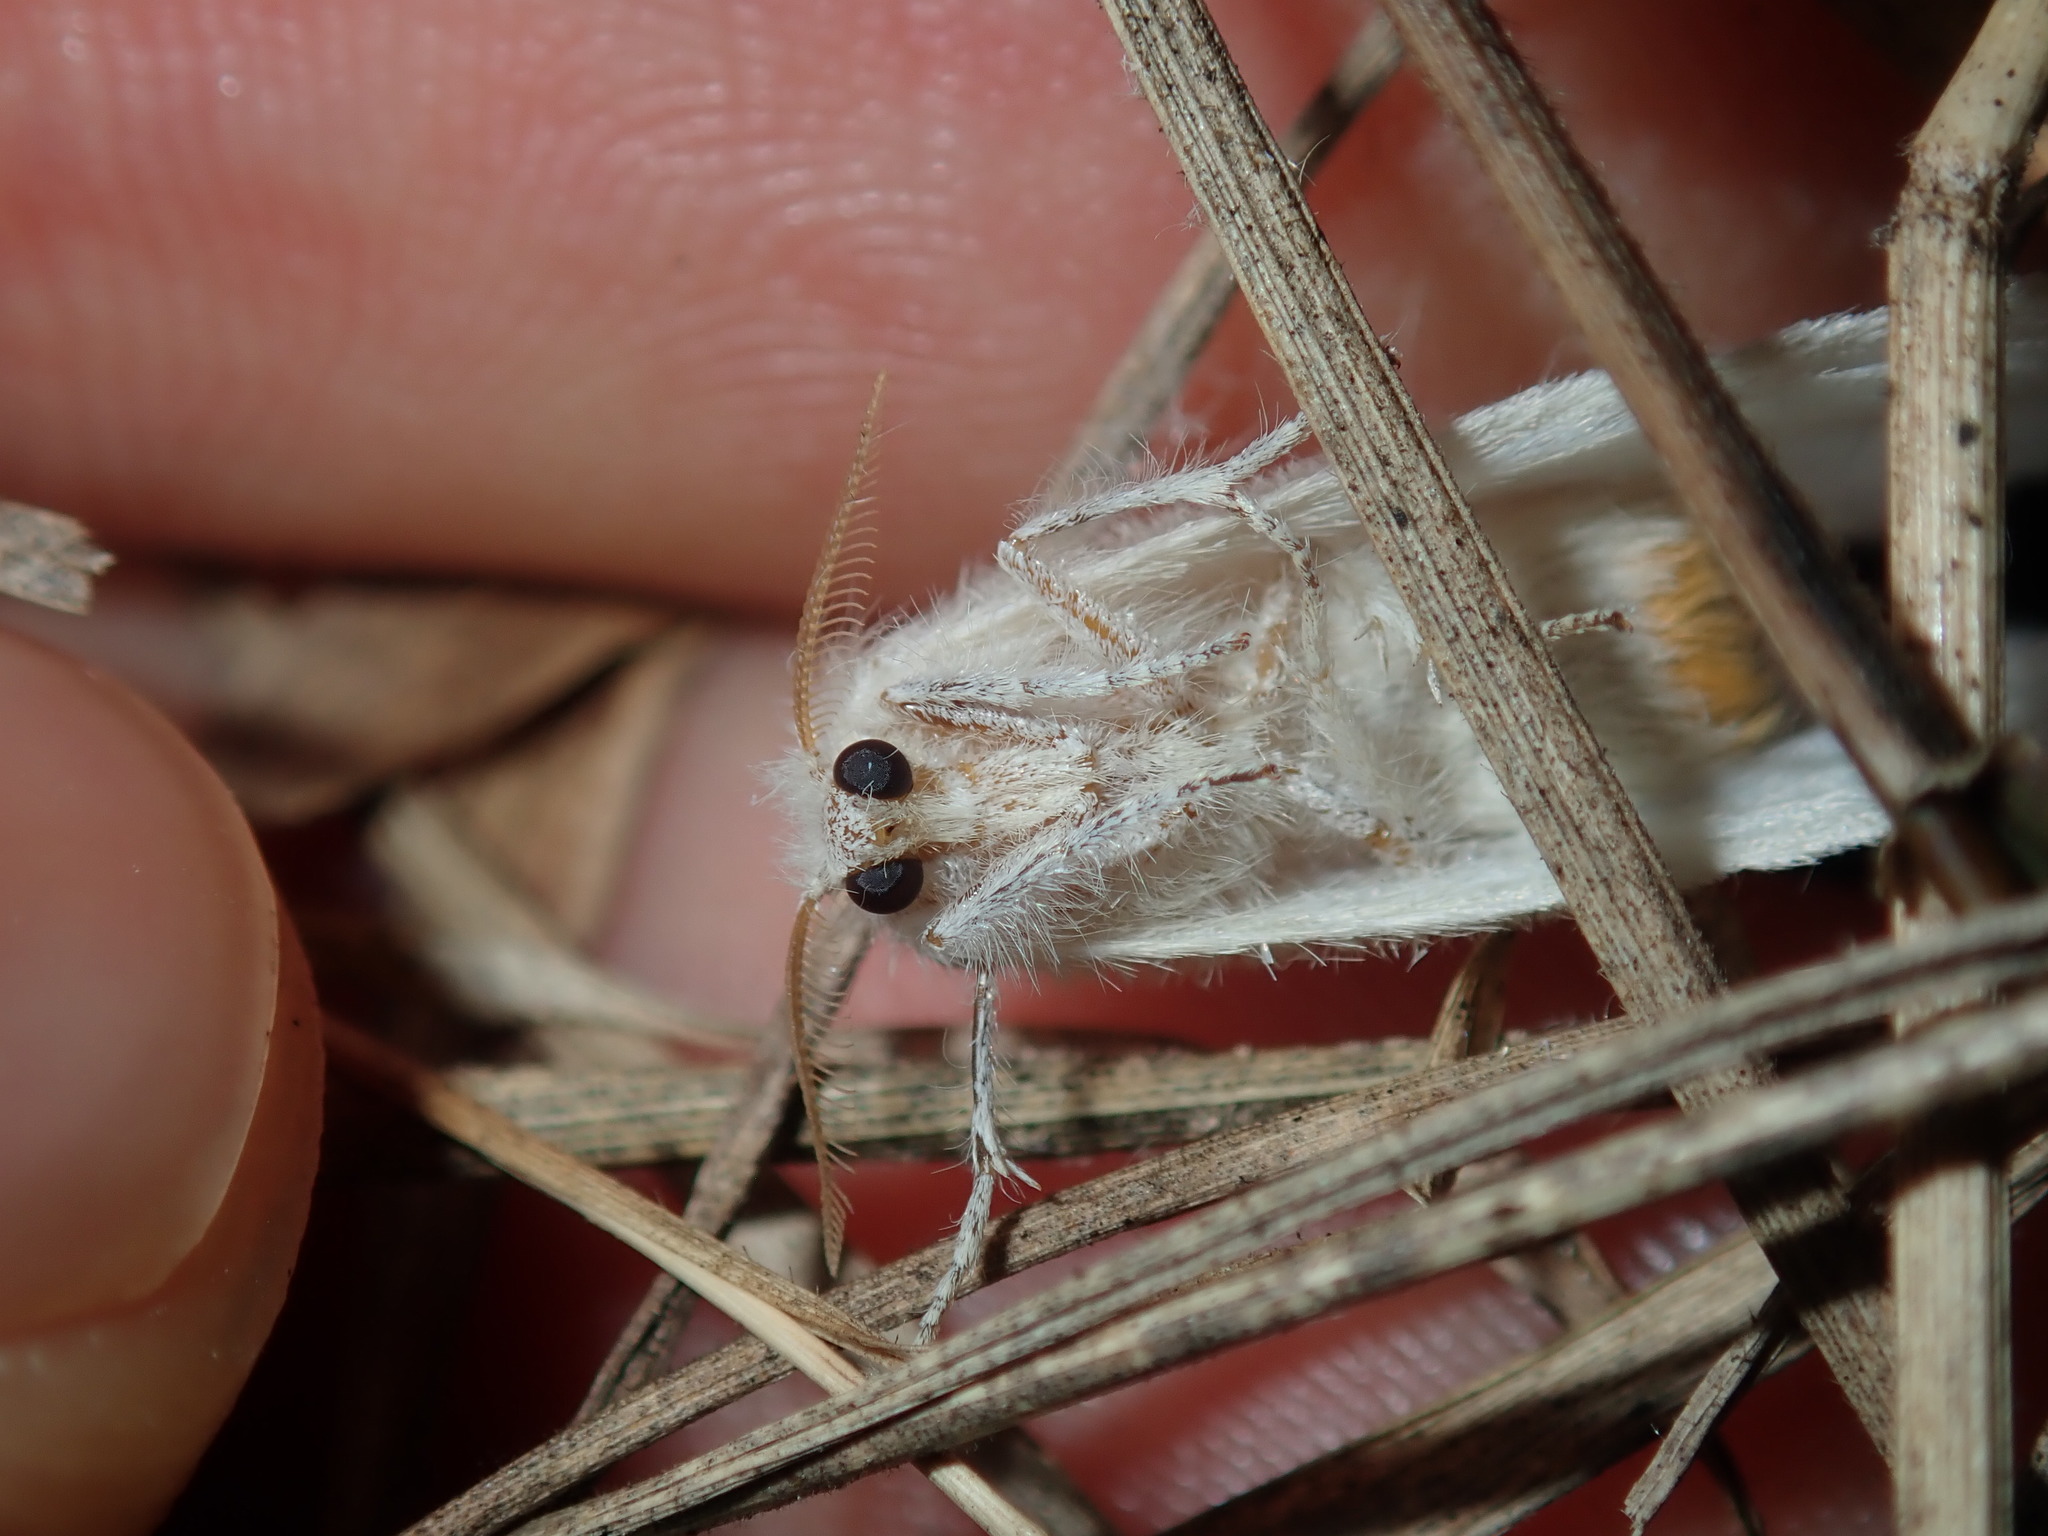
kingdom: Animalia
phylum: Arthropoda
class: Insecta
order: Lepidoptera
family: Erebidae
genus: Acyphas
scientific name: Acyphas chionitis
